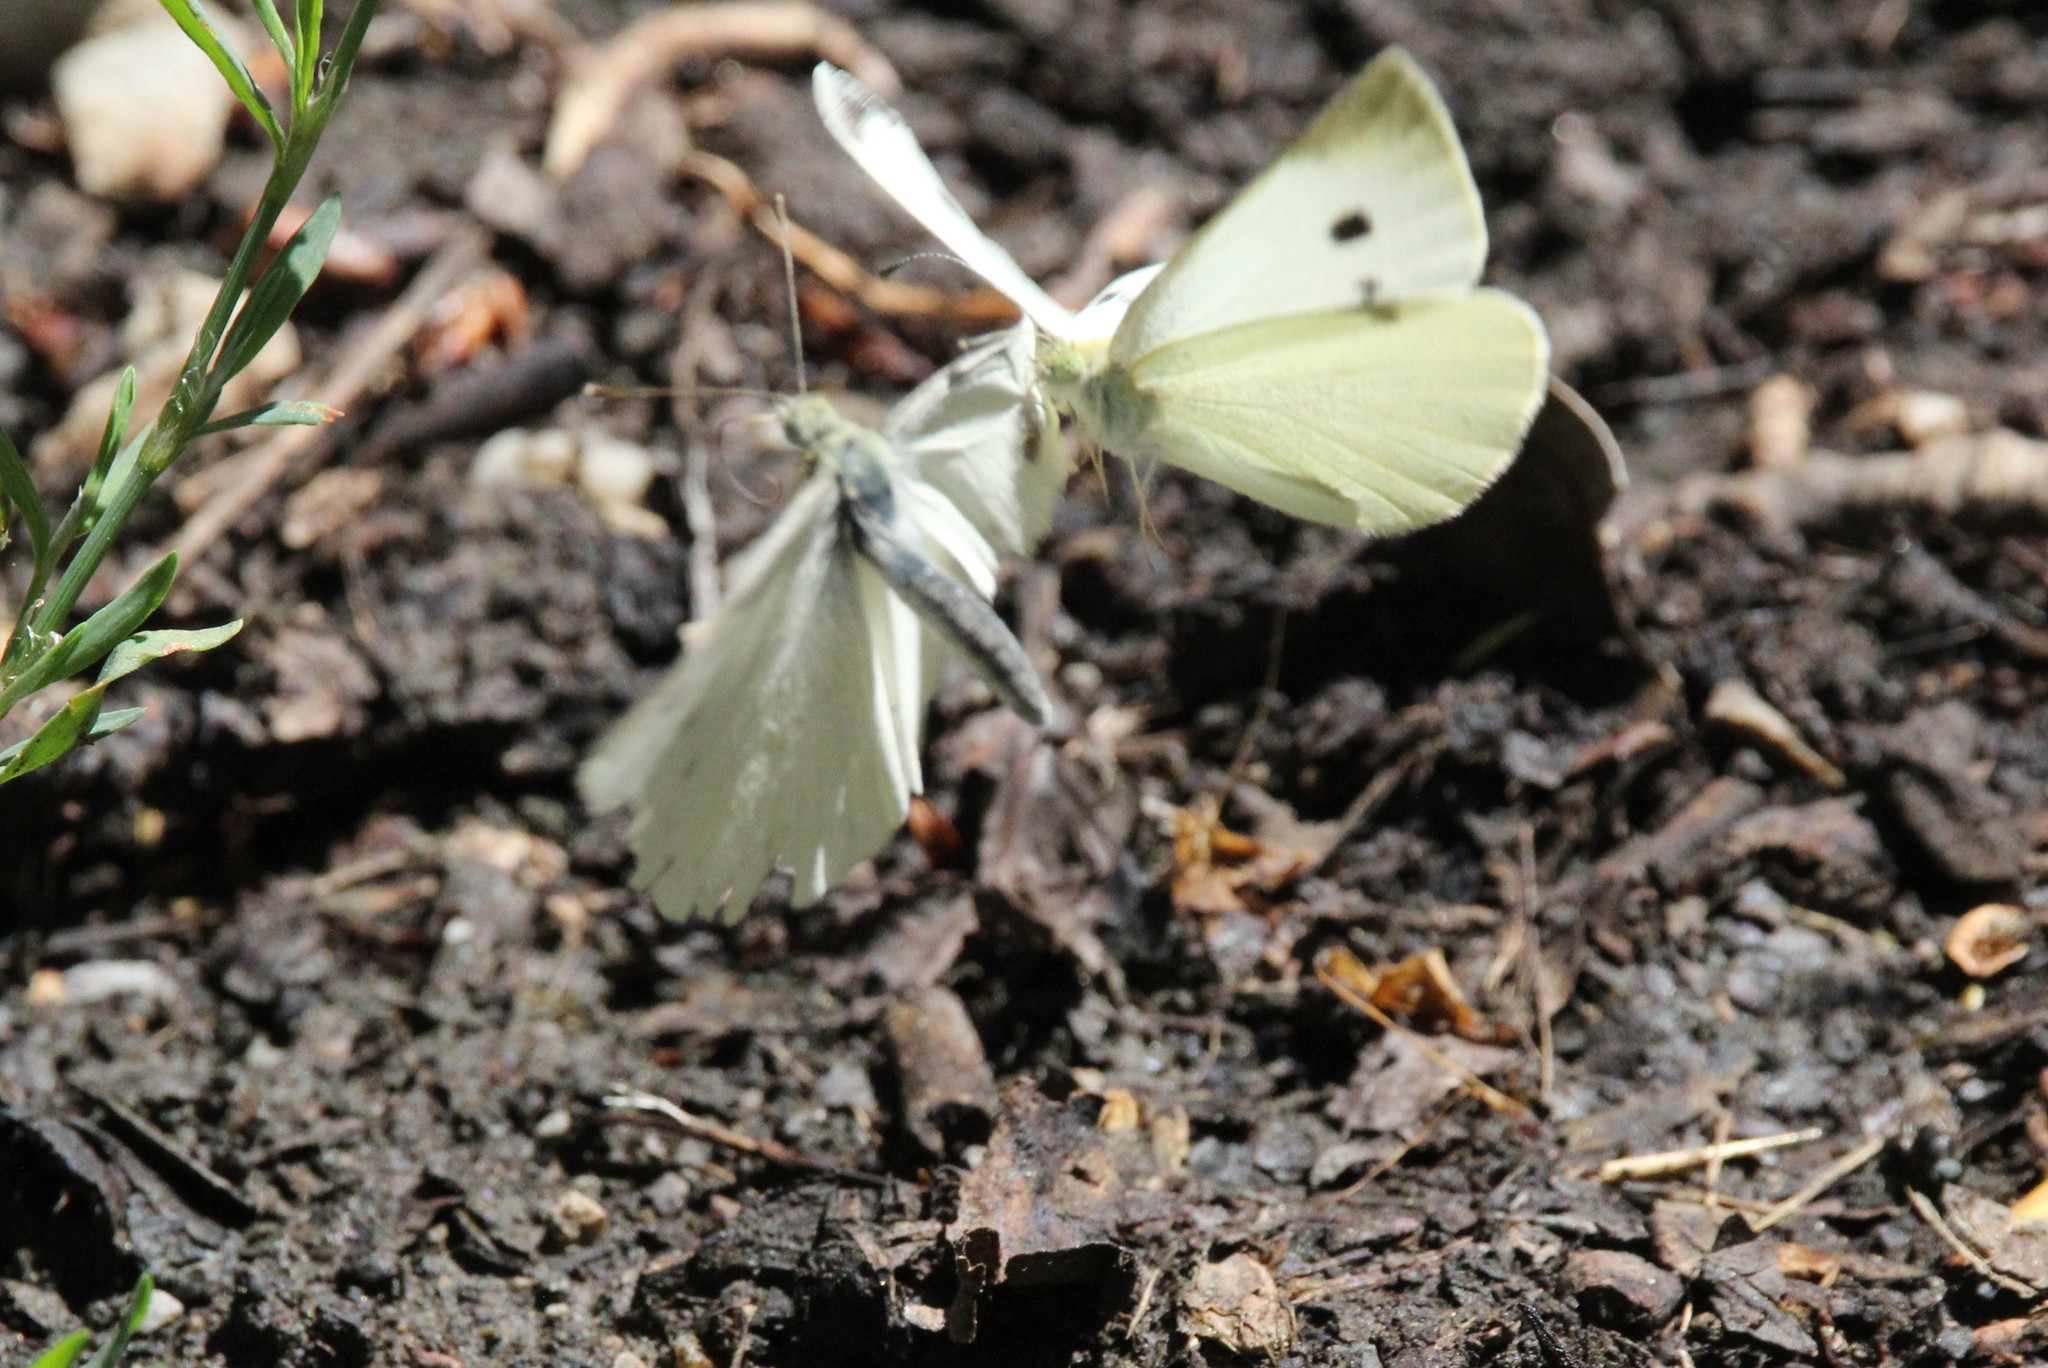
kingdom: Animalia
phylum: Arthropoda
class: Insecta
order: Lepidoptera
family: Pieridae
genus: Pieris
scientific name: Pieris rapae
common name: Small white
